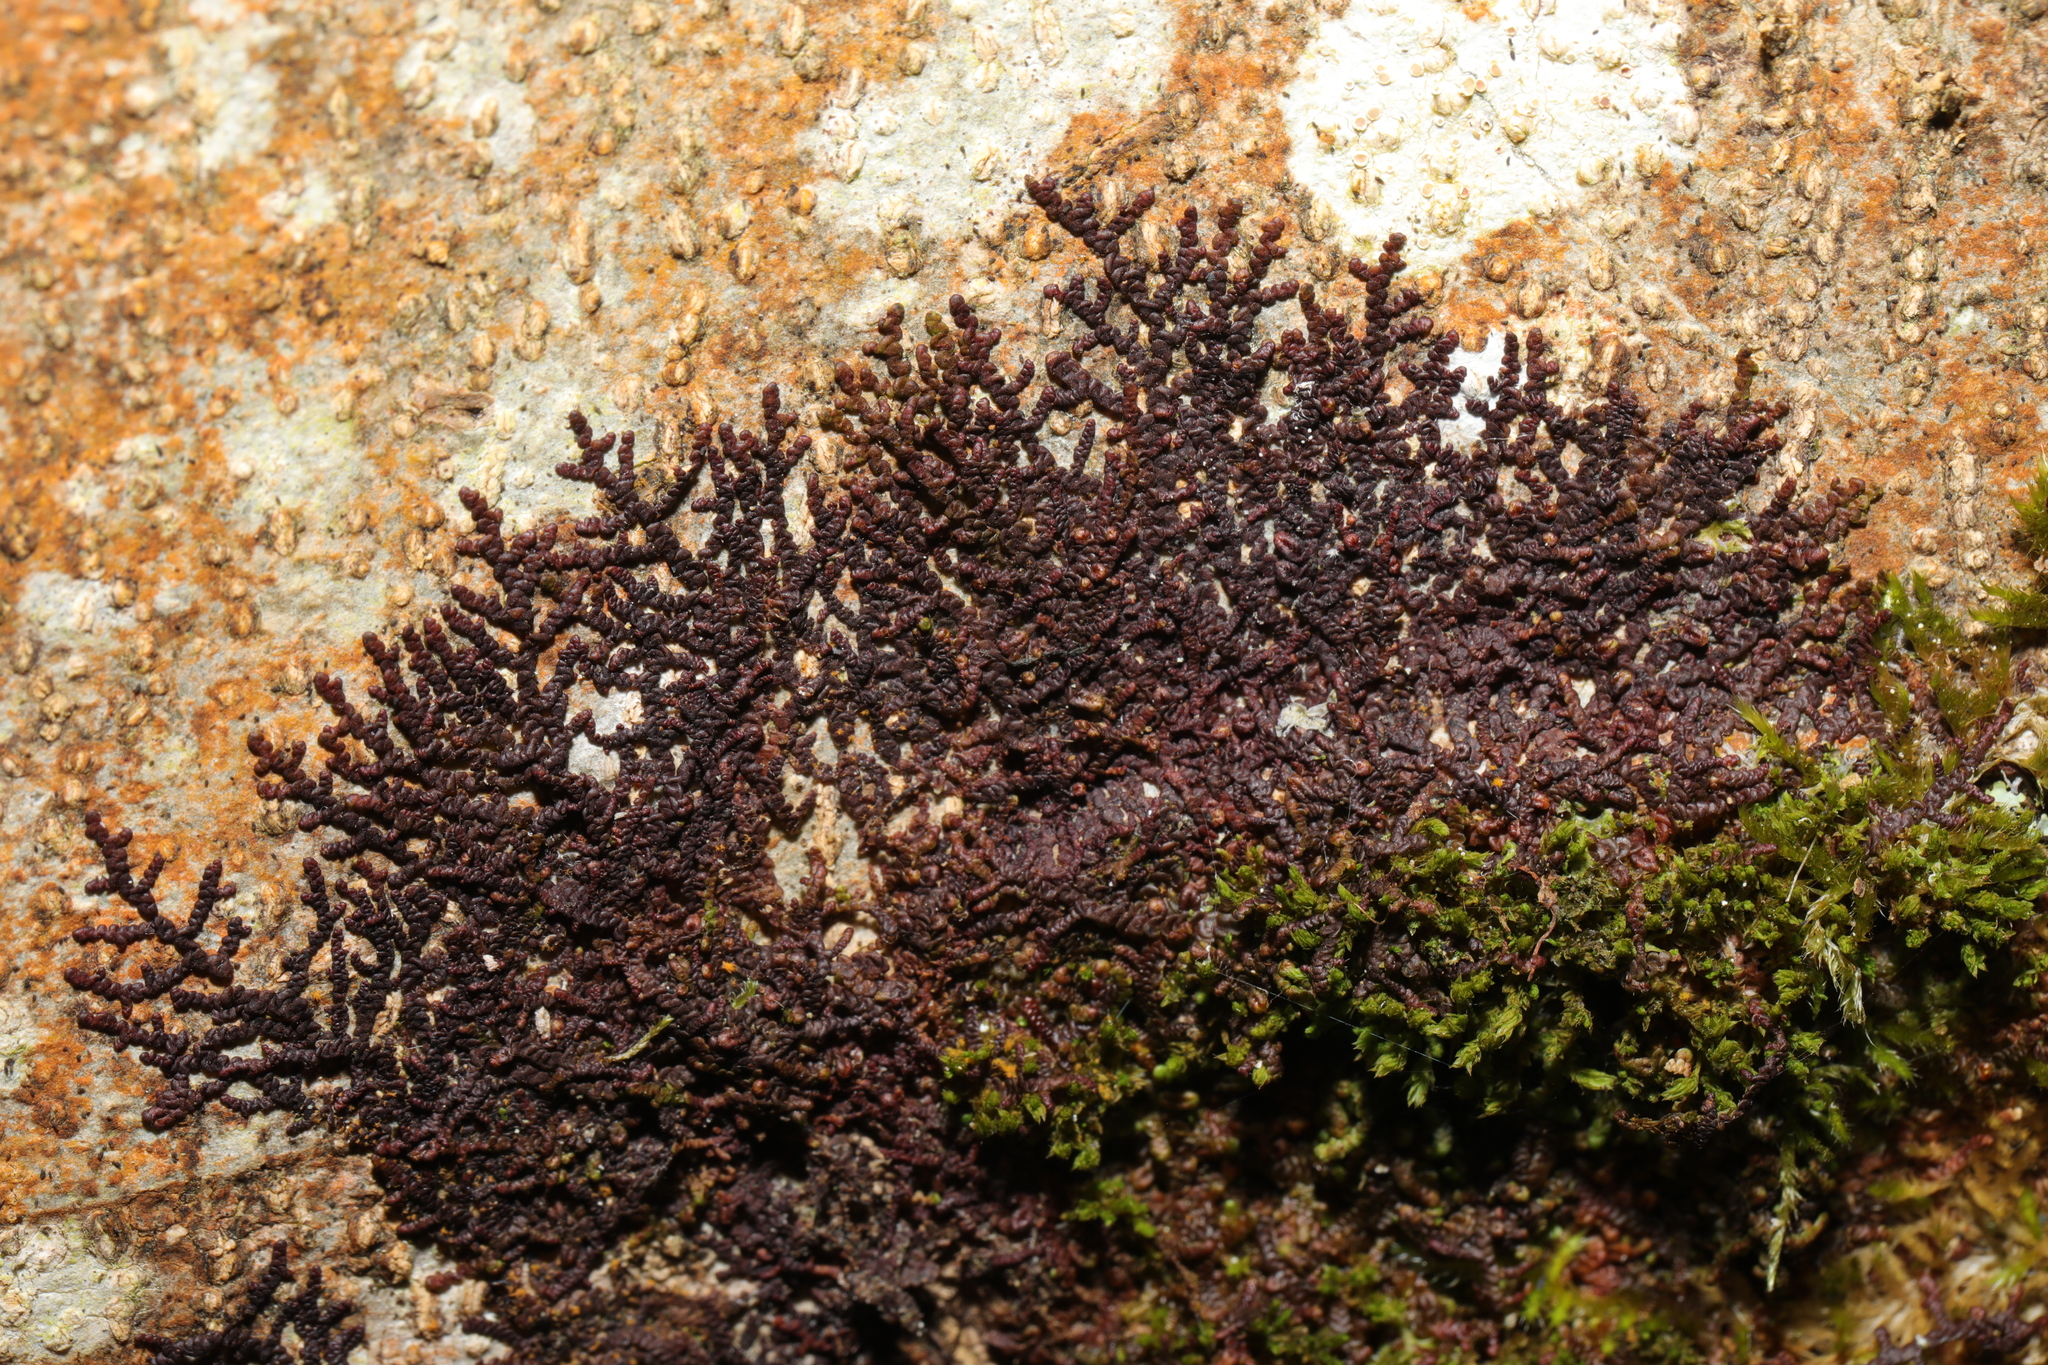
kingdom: Plantae
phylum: Marchantiophyta
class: Jungermanniopsida
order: Porellales
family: Frullaniaceae
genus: Frullania
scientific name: Frullania dilatata
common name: Dilated scalewort
